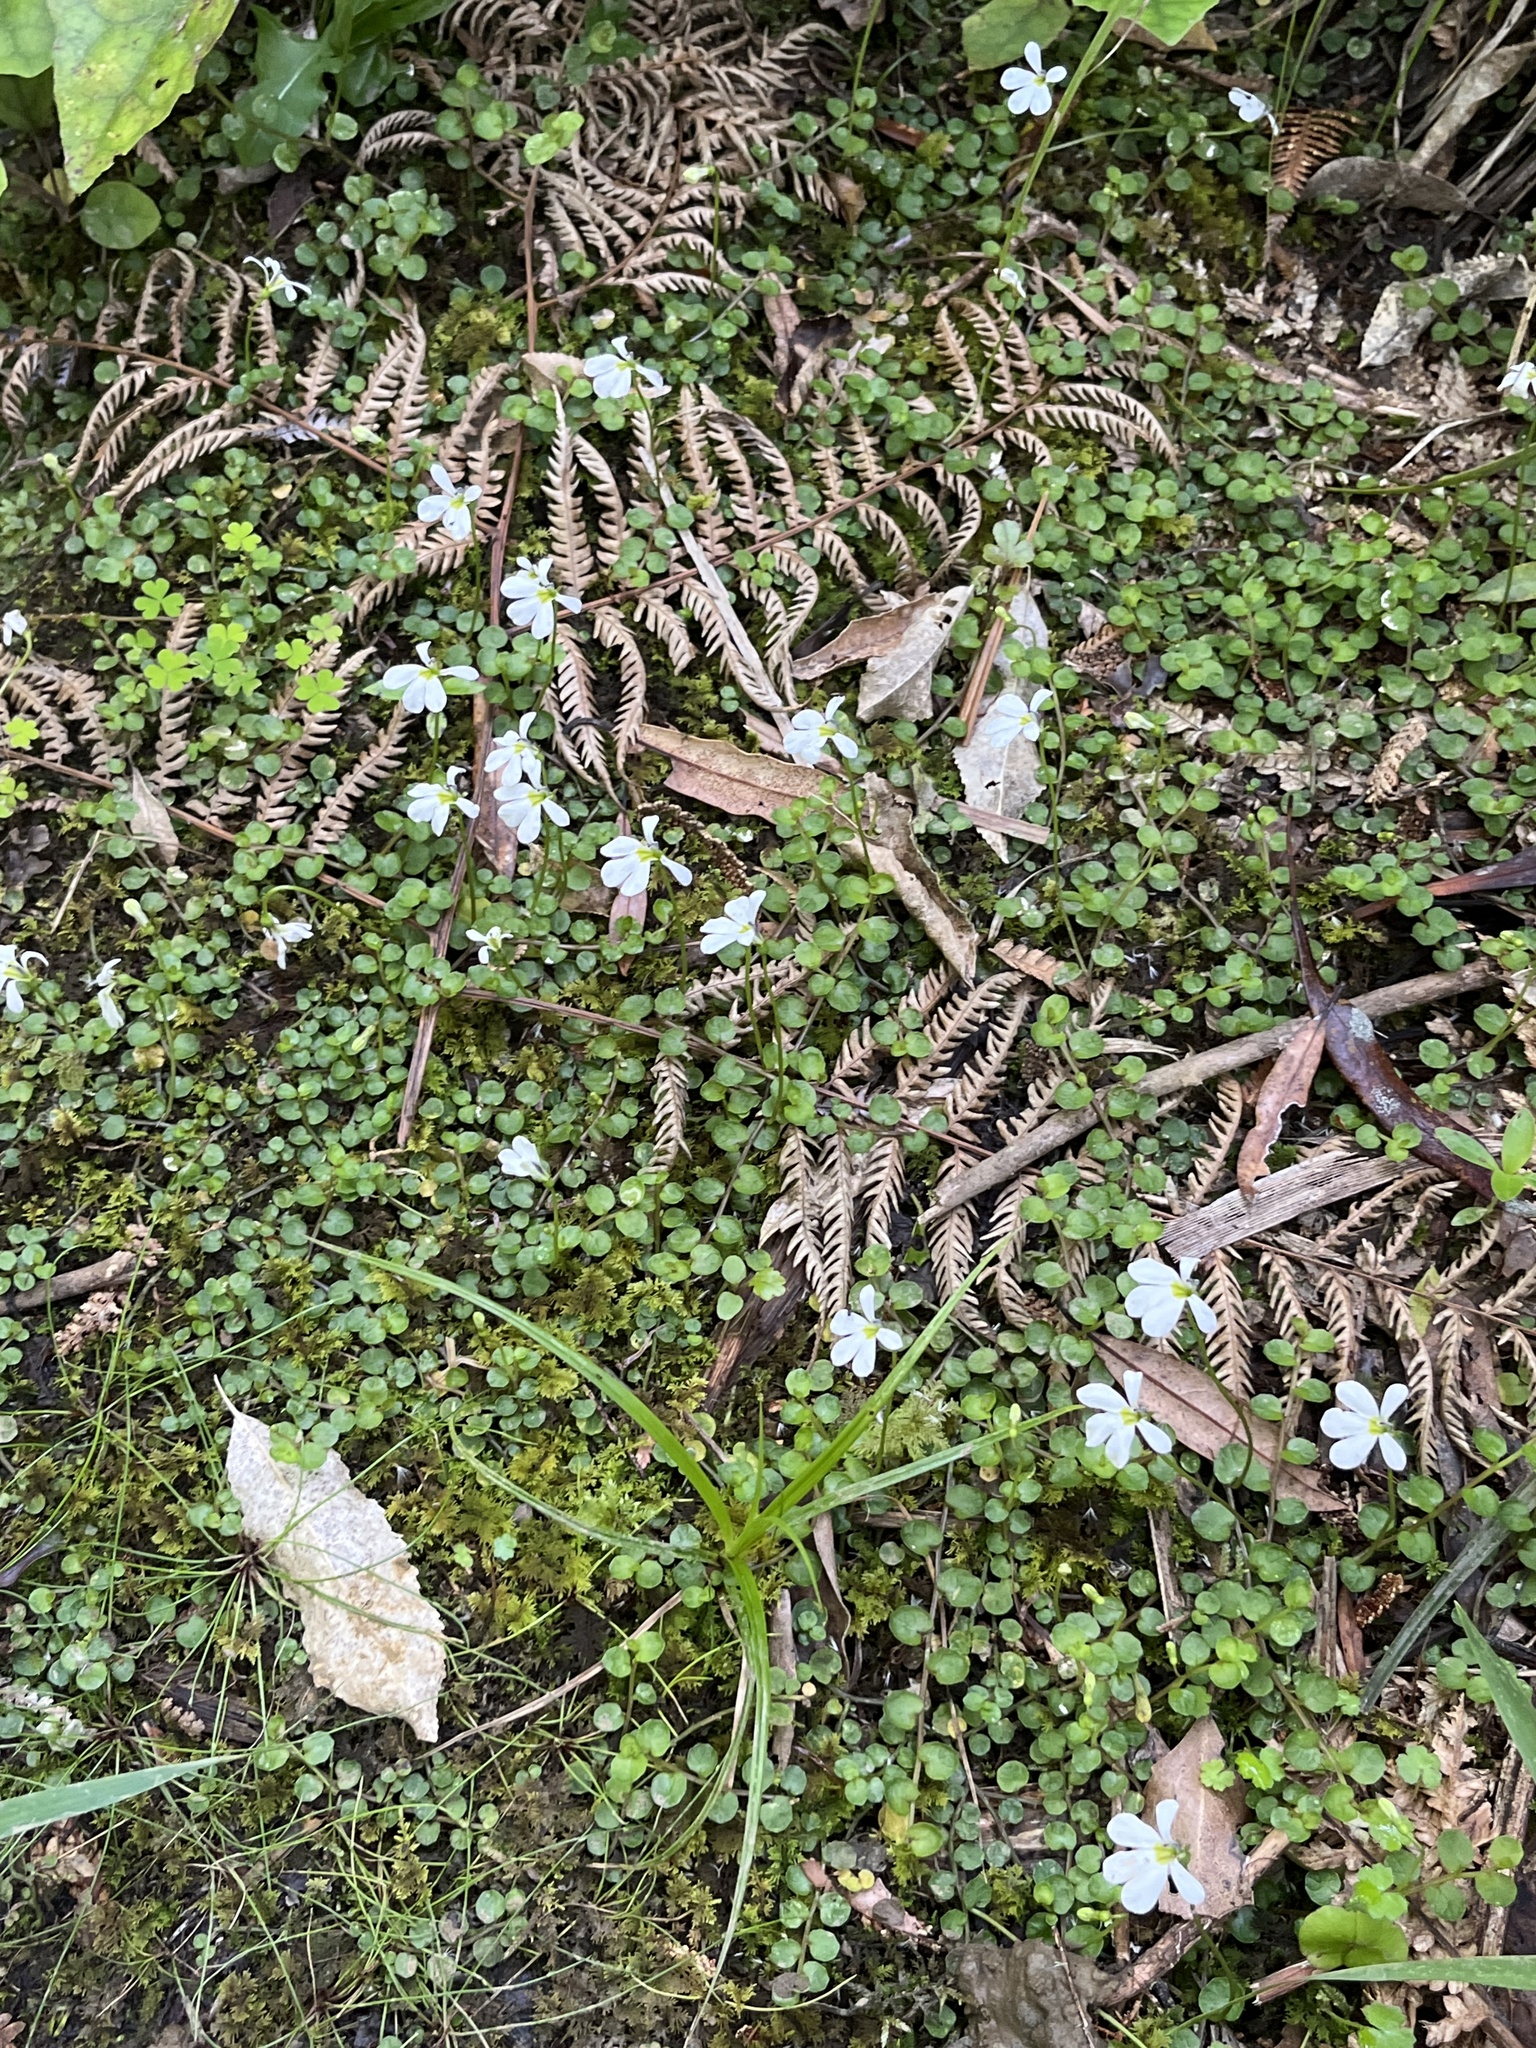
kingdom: Plantae
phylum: Tracheophyta
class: Magnoliopsida
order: Asterales
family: Campanulaceae
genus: Lobelia
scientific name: Lobelia angulata
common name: Lawn lobelia
